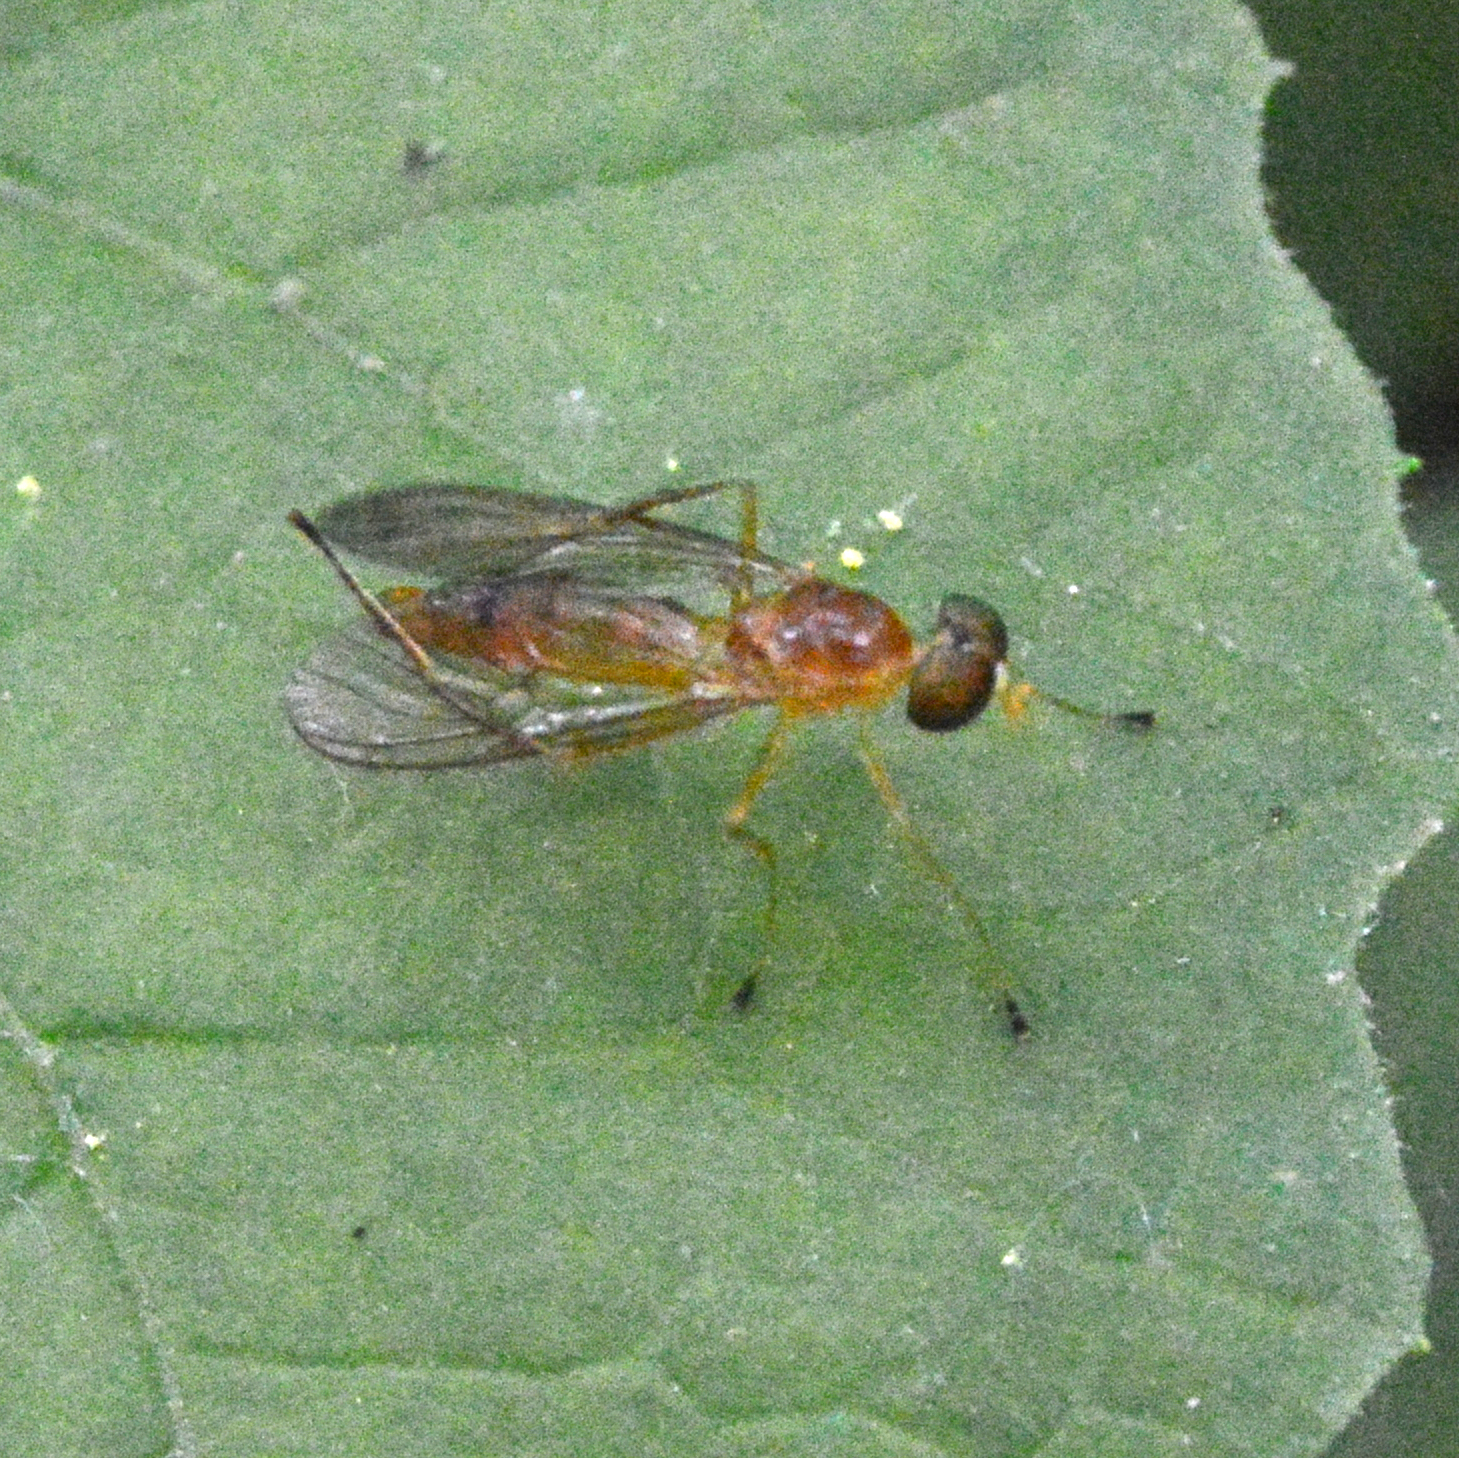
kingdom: Animalia
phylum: Arthropoda
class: Insecta
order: Diptera
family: Stratiomyidae
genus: Ptecticus
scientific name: Ptecticus trivittatus
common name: Compost fly
